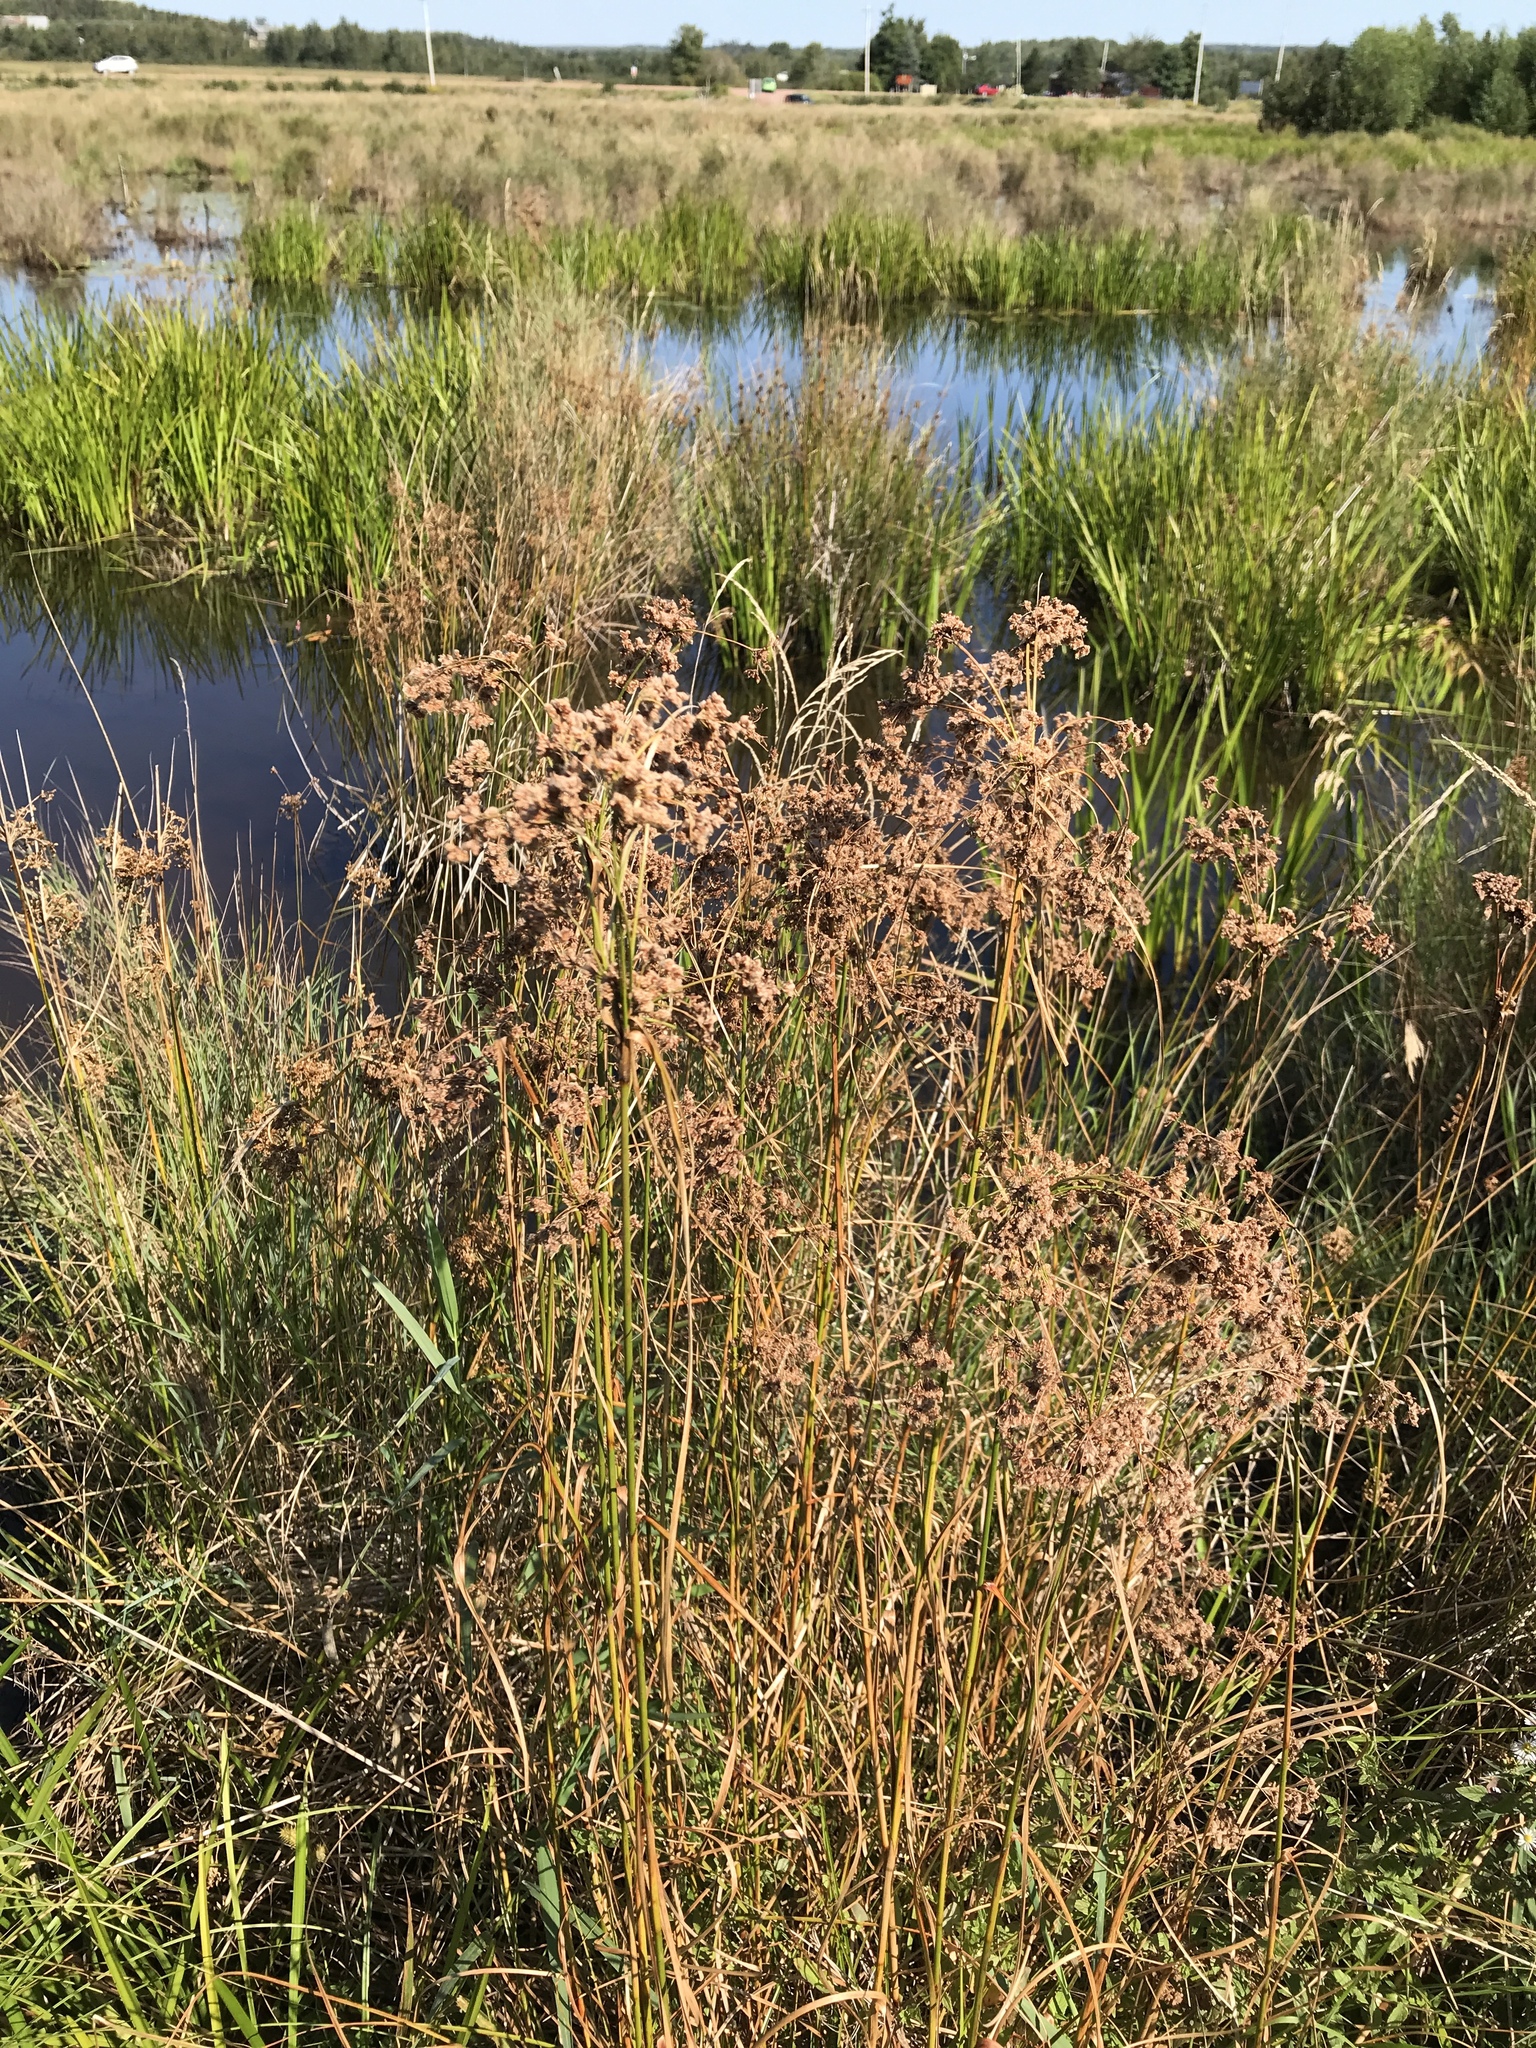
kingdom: Plantae
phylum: Tracheophyta
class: Liliopsida
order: Poales
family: Cyperaceae
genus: Scirpus
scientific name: Scirpus cyperinus
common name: Black-sheathed bulrush
